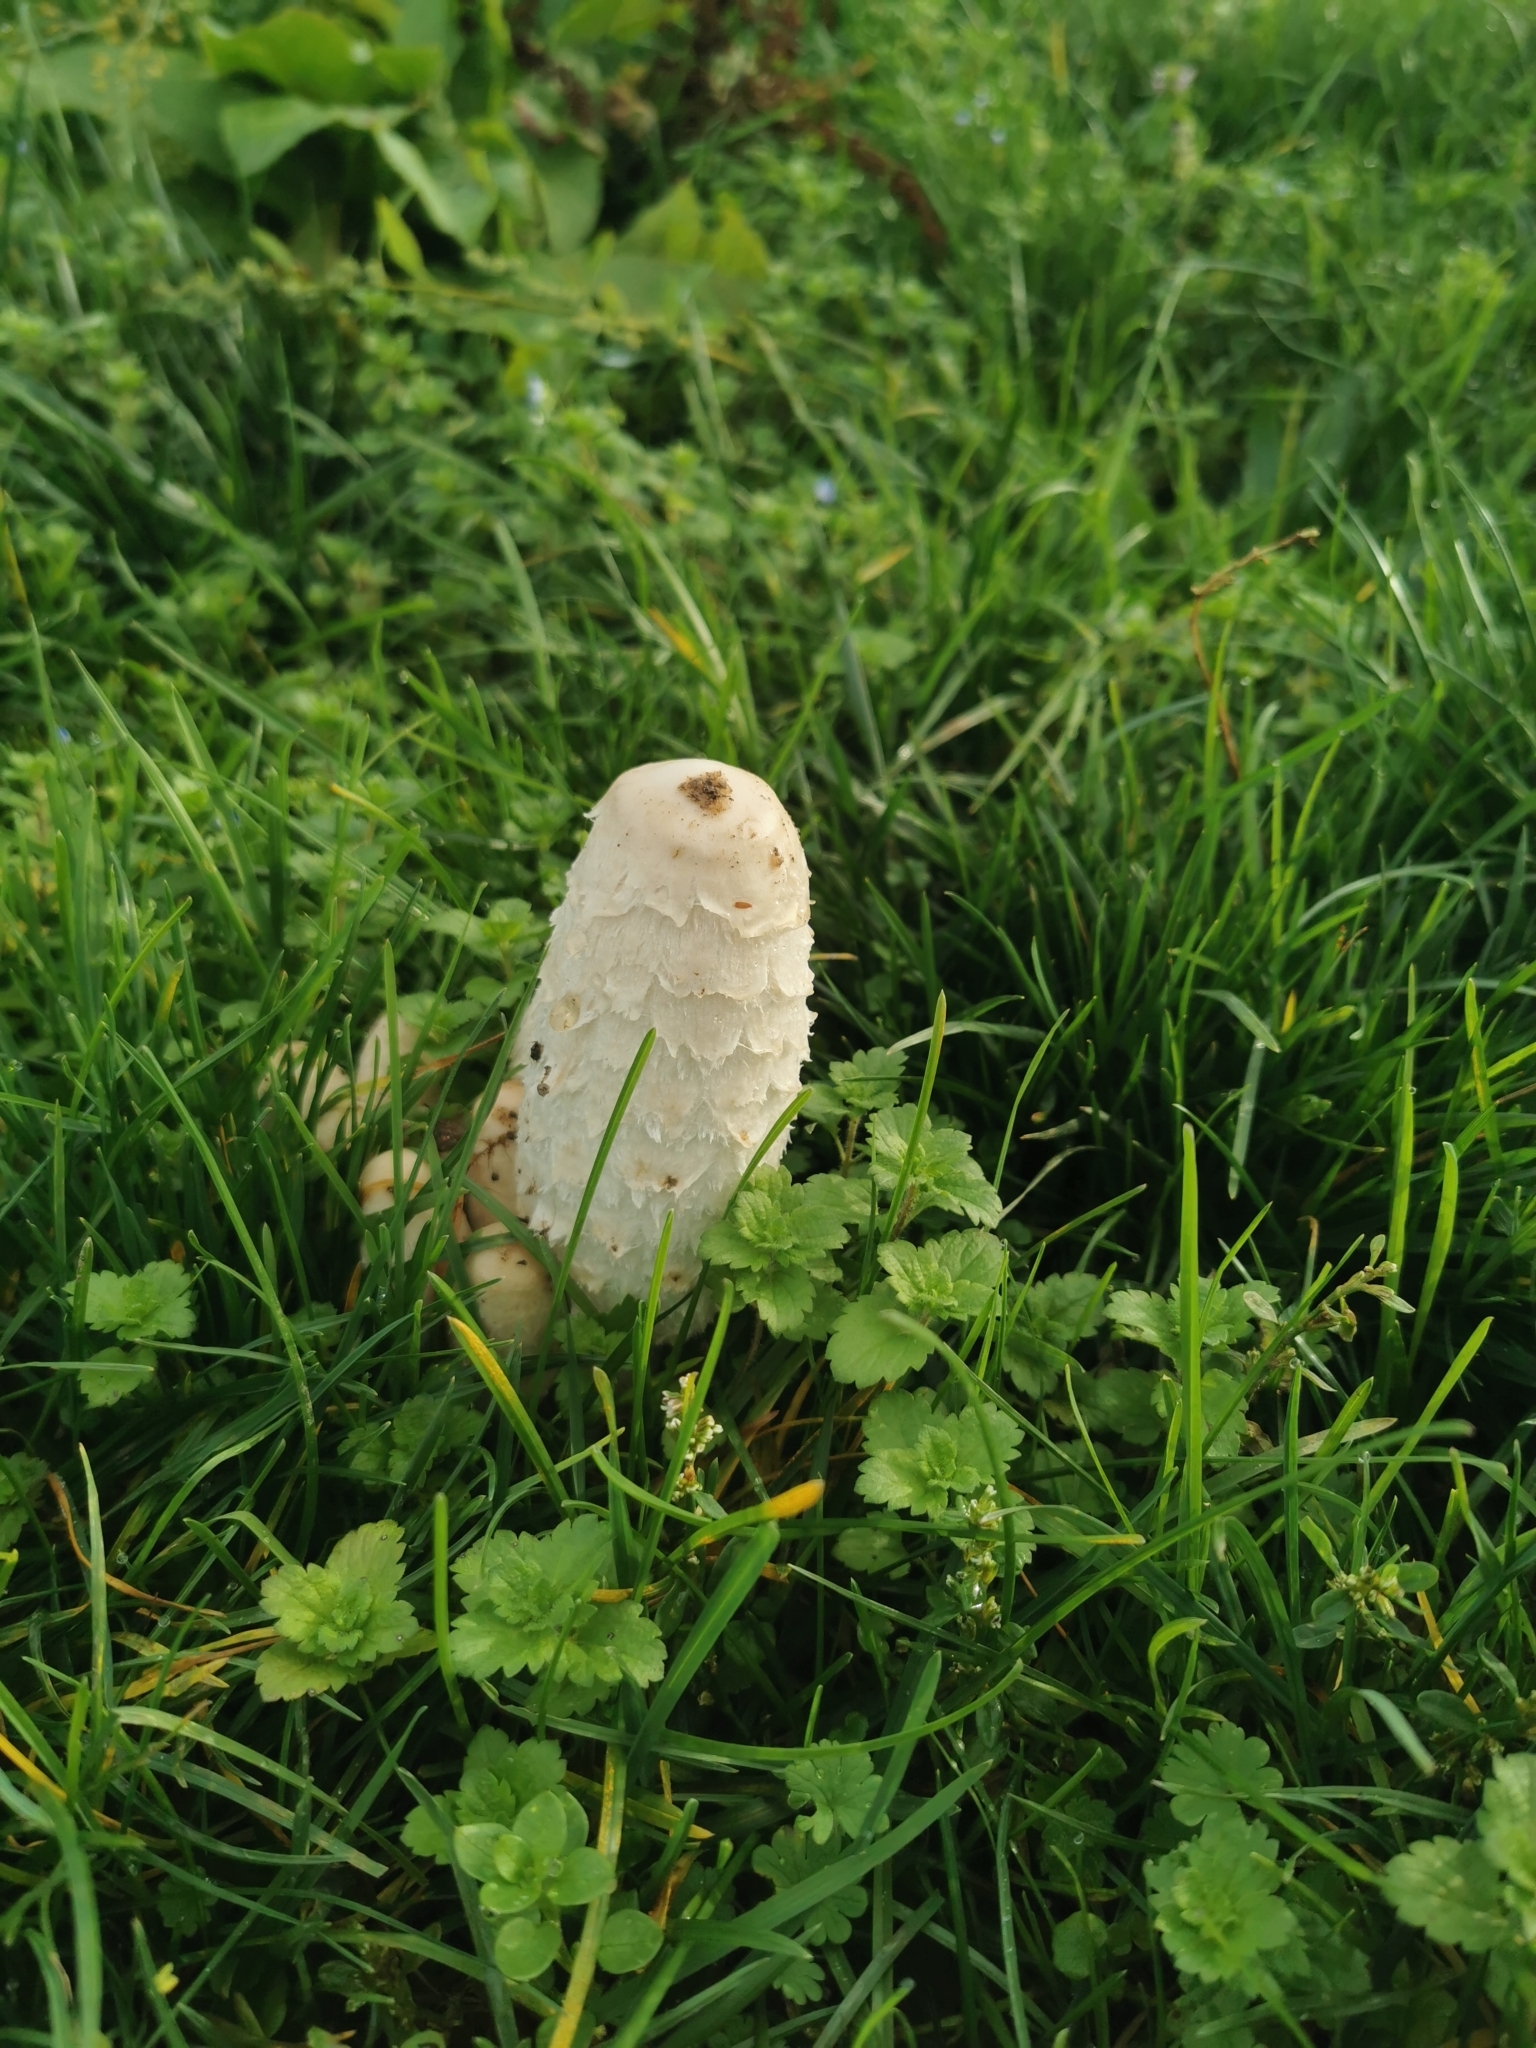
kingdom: Fungi
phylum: Basidiomycota
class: Agaricomycetes
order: Agaricales
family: Agaricaceae
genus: Coprinus
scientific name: Coprinus comatus
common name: Lawyer's wig
